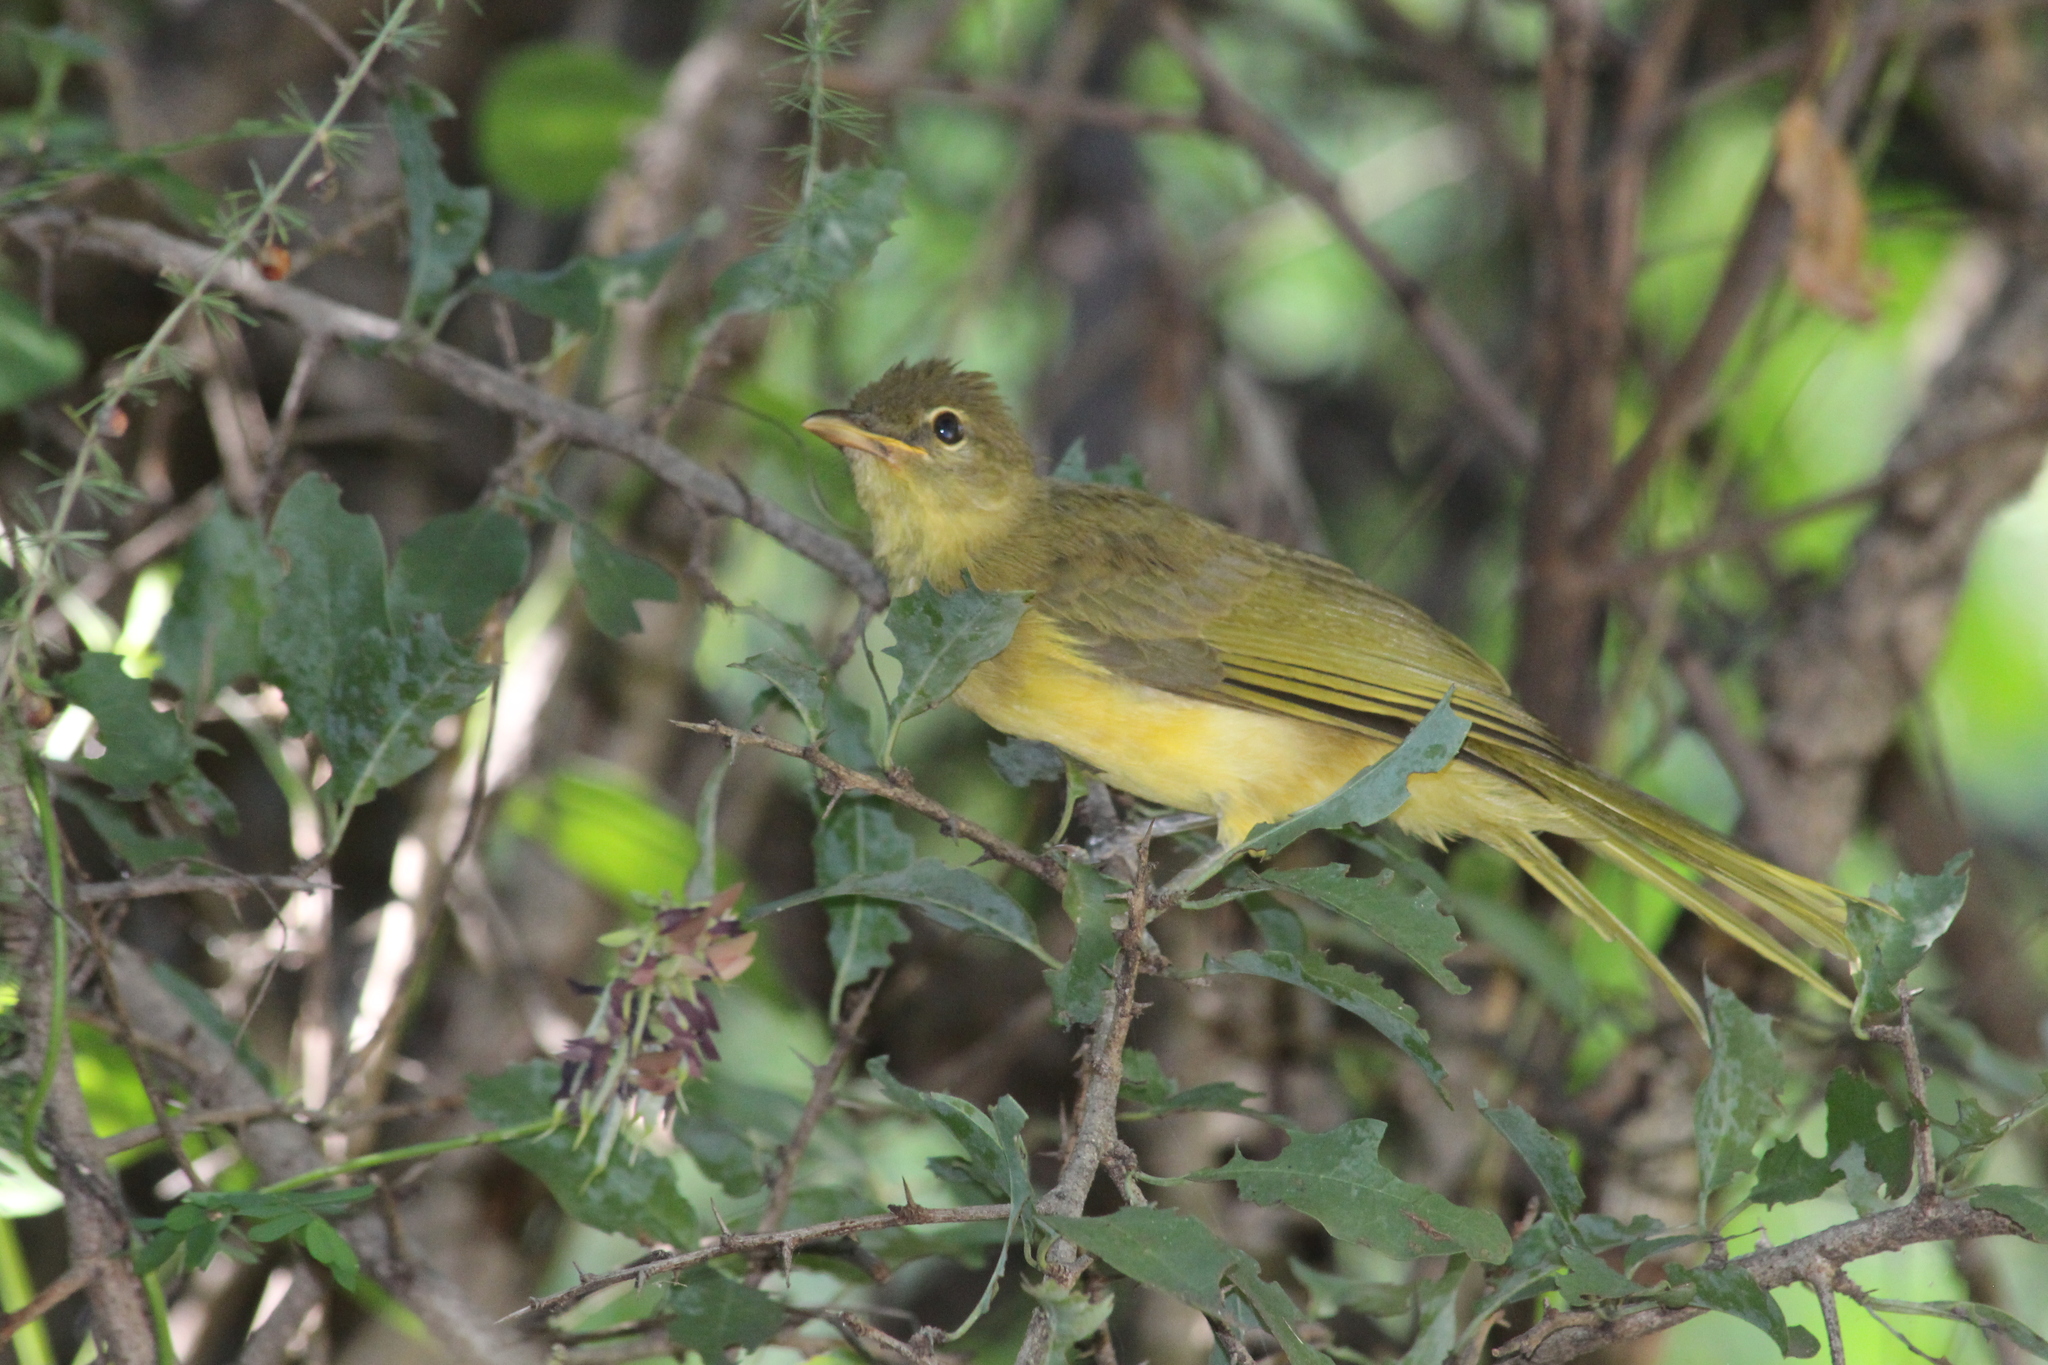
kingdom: Animalia
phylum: Chordata
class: Aves
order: Passeriformes
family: Pycnonotidae
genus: Chlorocichla
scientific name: Chlorocichla flaviventris
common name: Yellow-bellied greenbul
